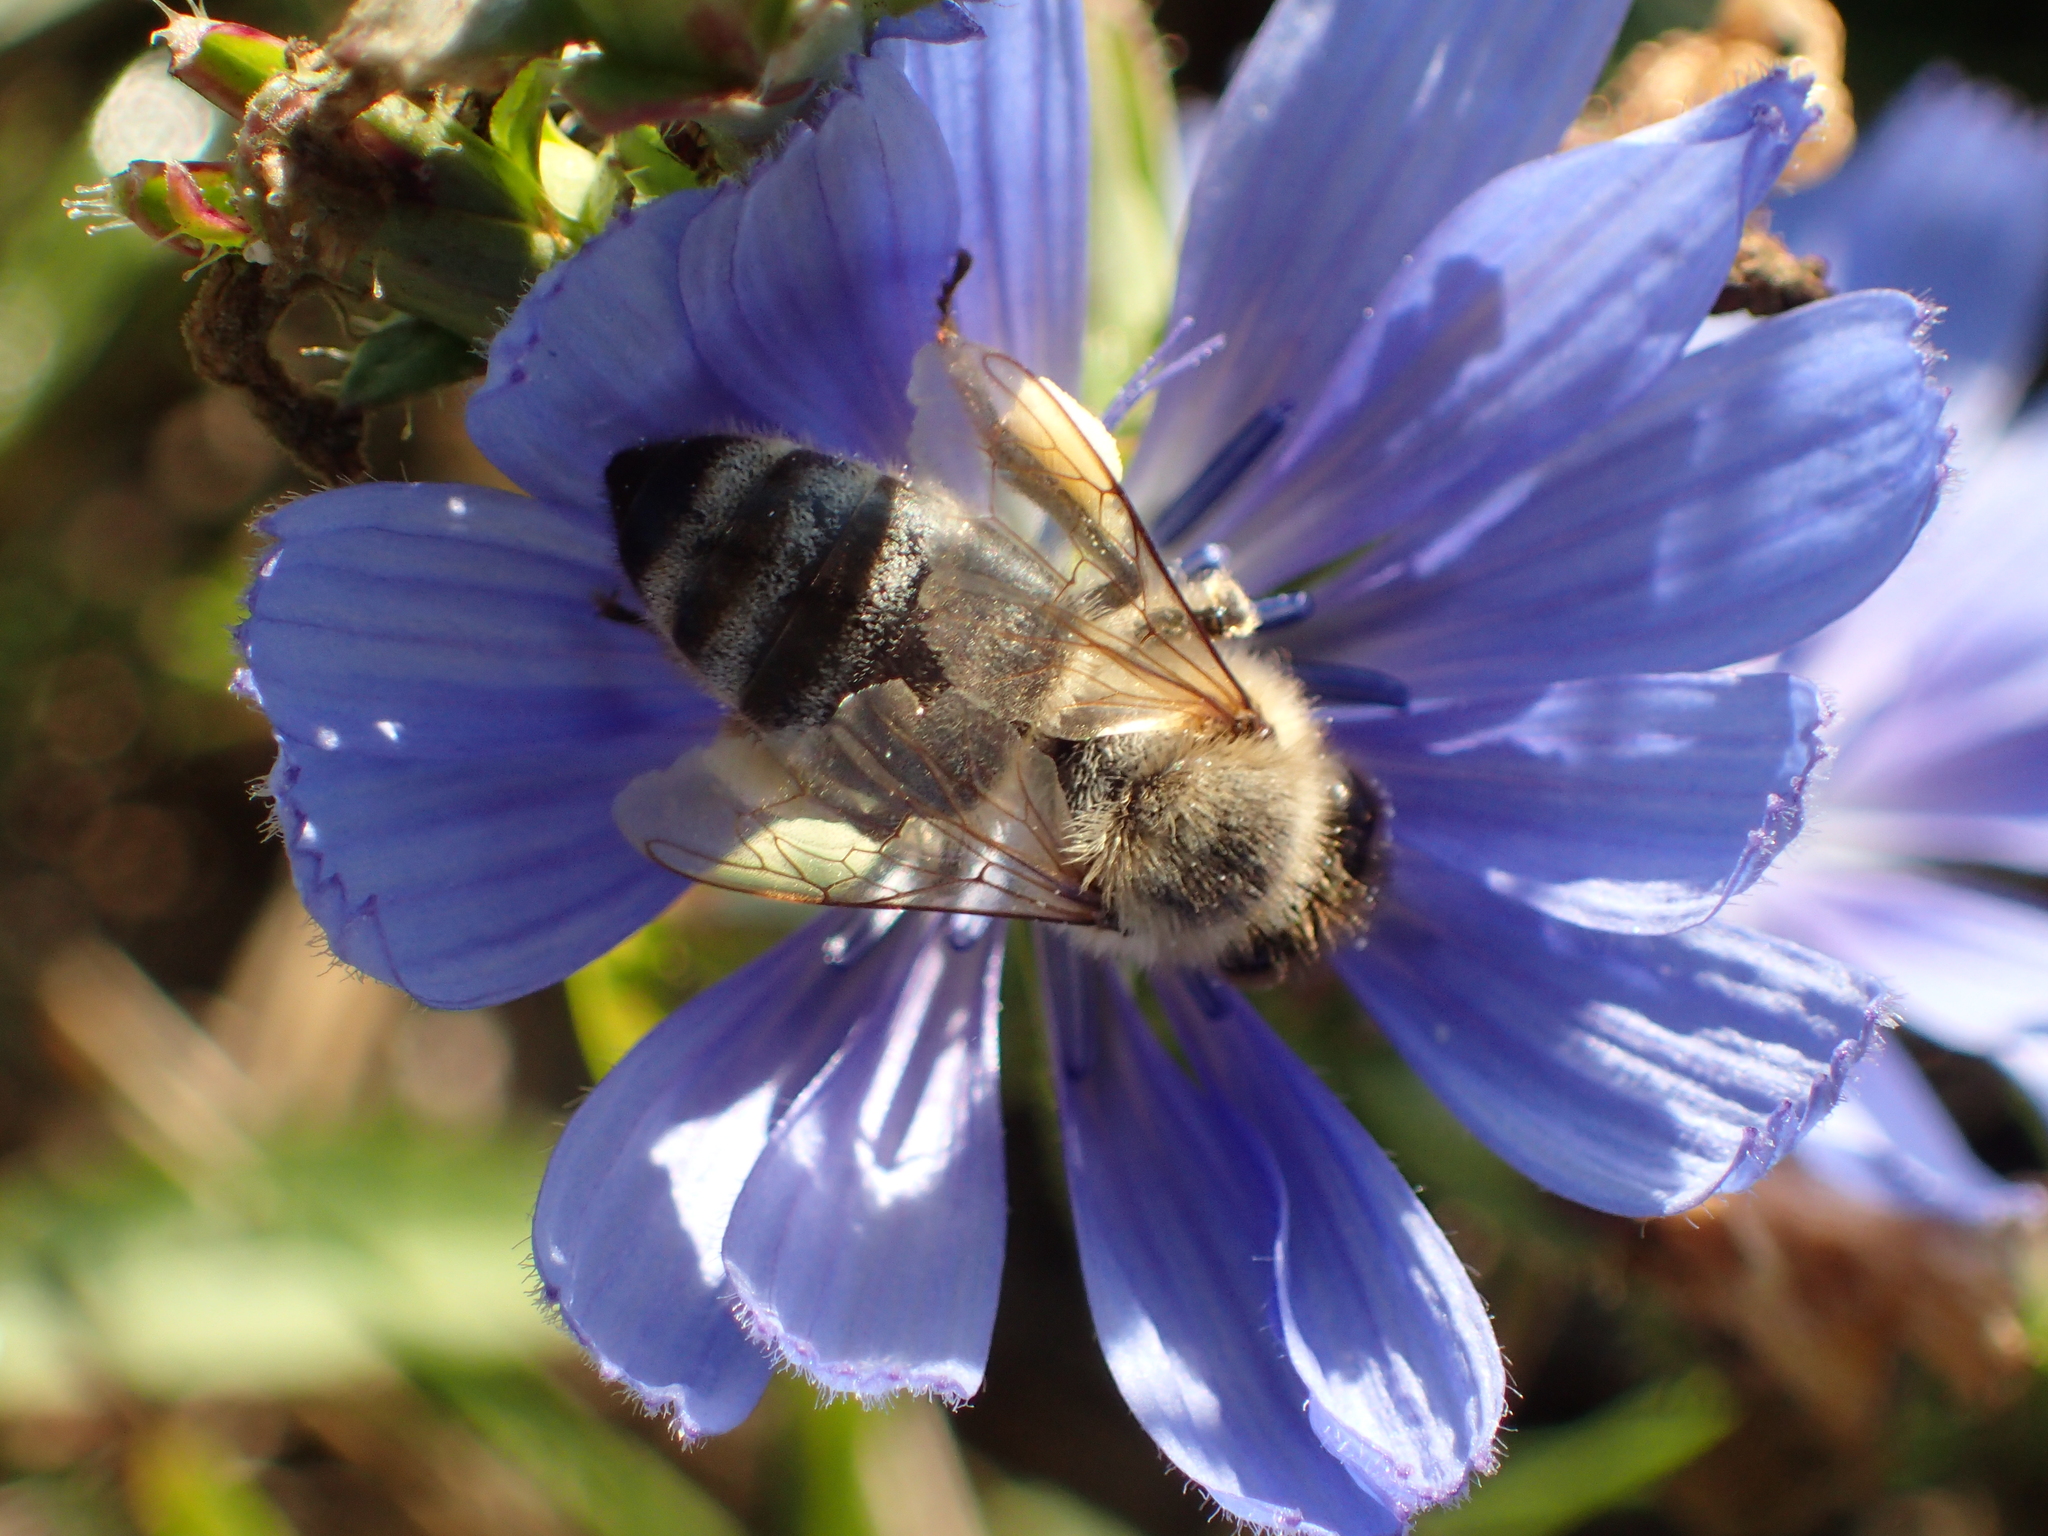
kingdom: Animalia
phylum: Arthropoda
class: Insecta
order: Hymenoptera
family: Apidae
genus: Apis
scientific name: Apis mellifera
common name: Honey bee
